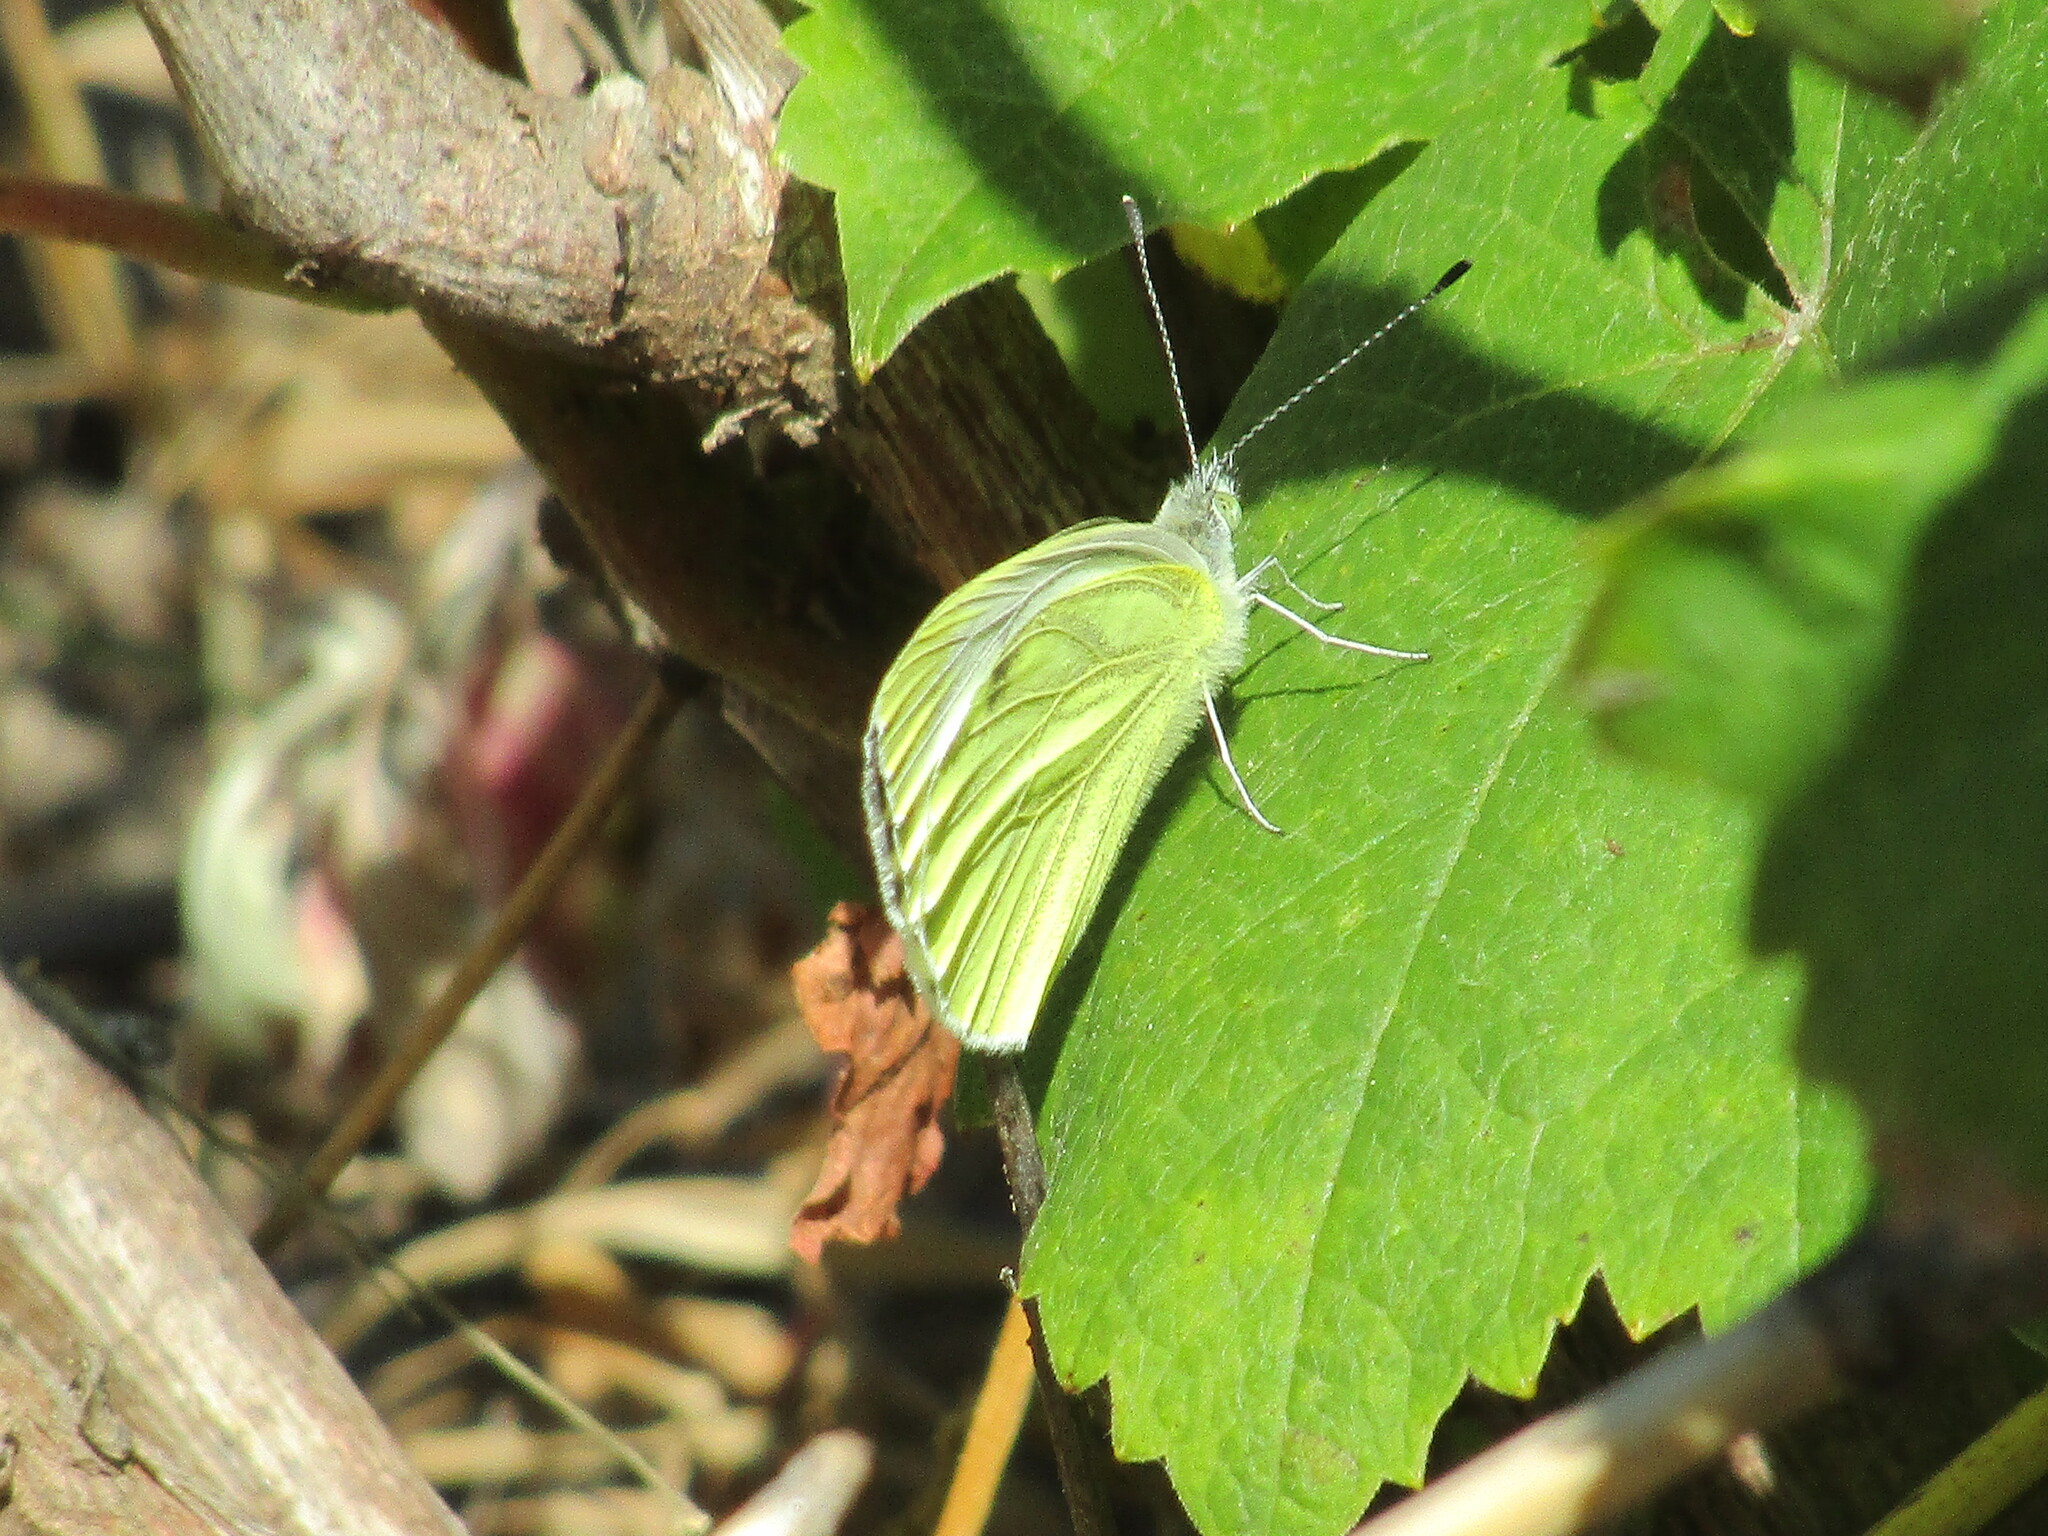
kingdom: Animalia
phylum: Arthropoda
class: Insecta
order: Lepidoptera
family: Pieridae
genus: Pieris
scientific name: Pieris napi
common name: Green-veined white
